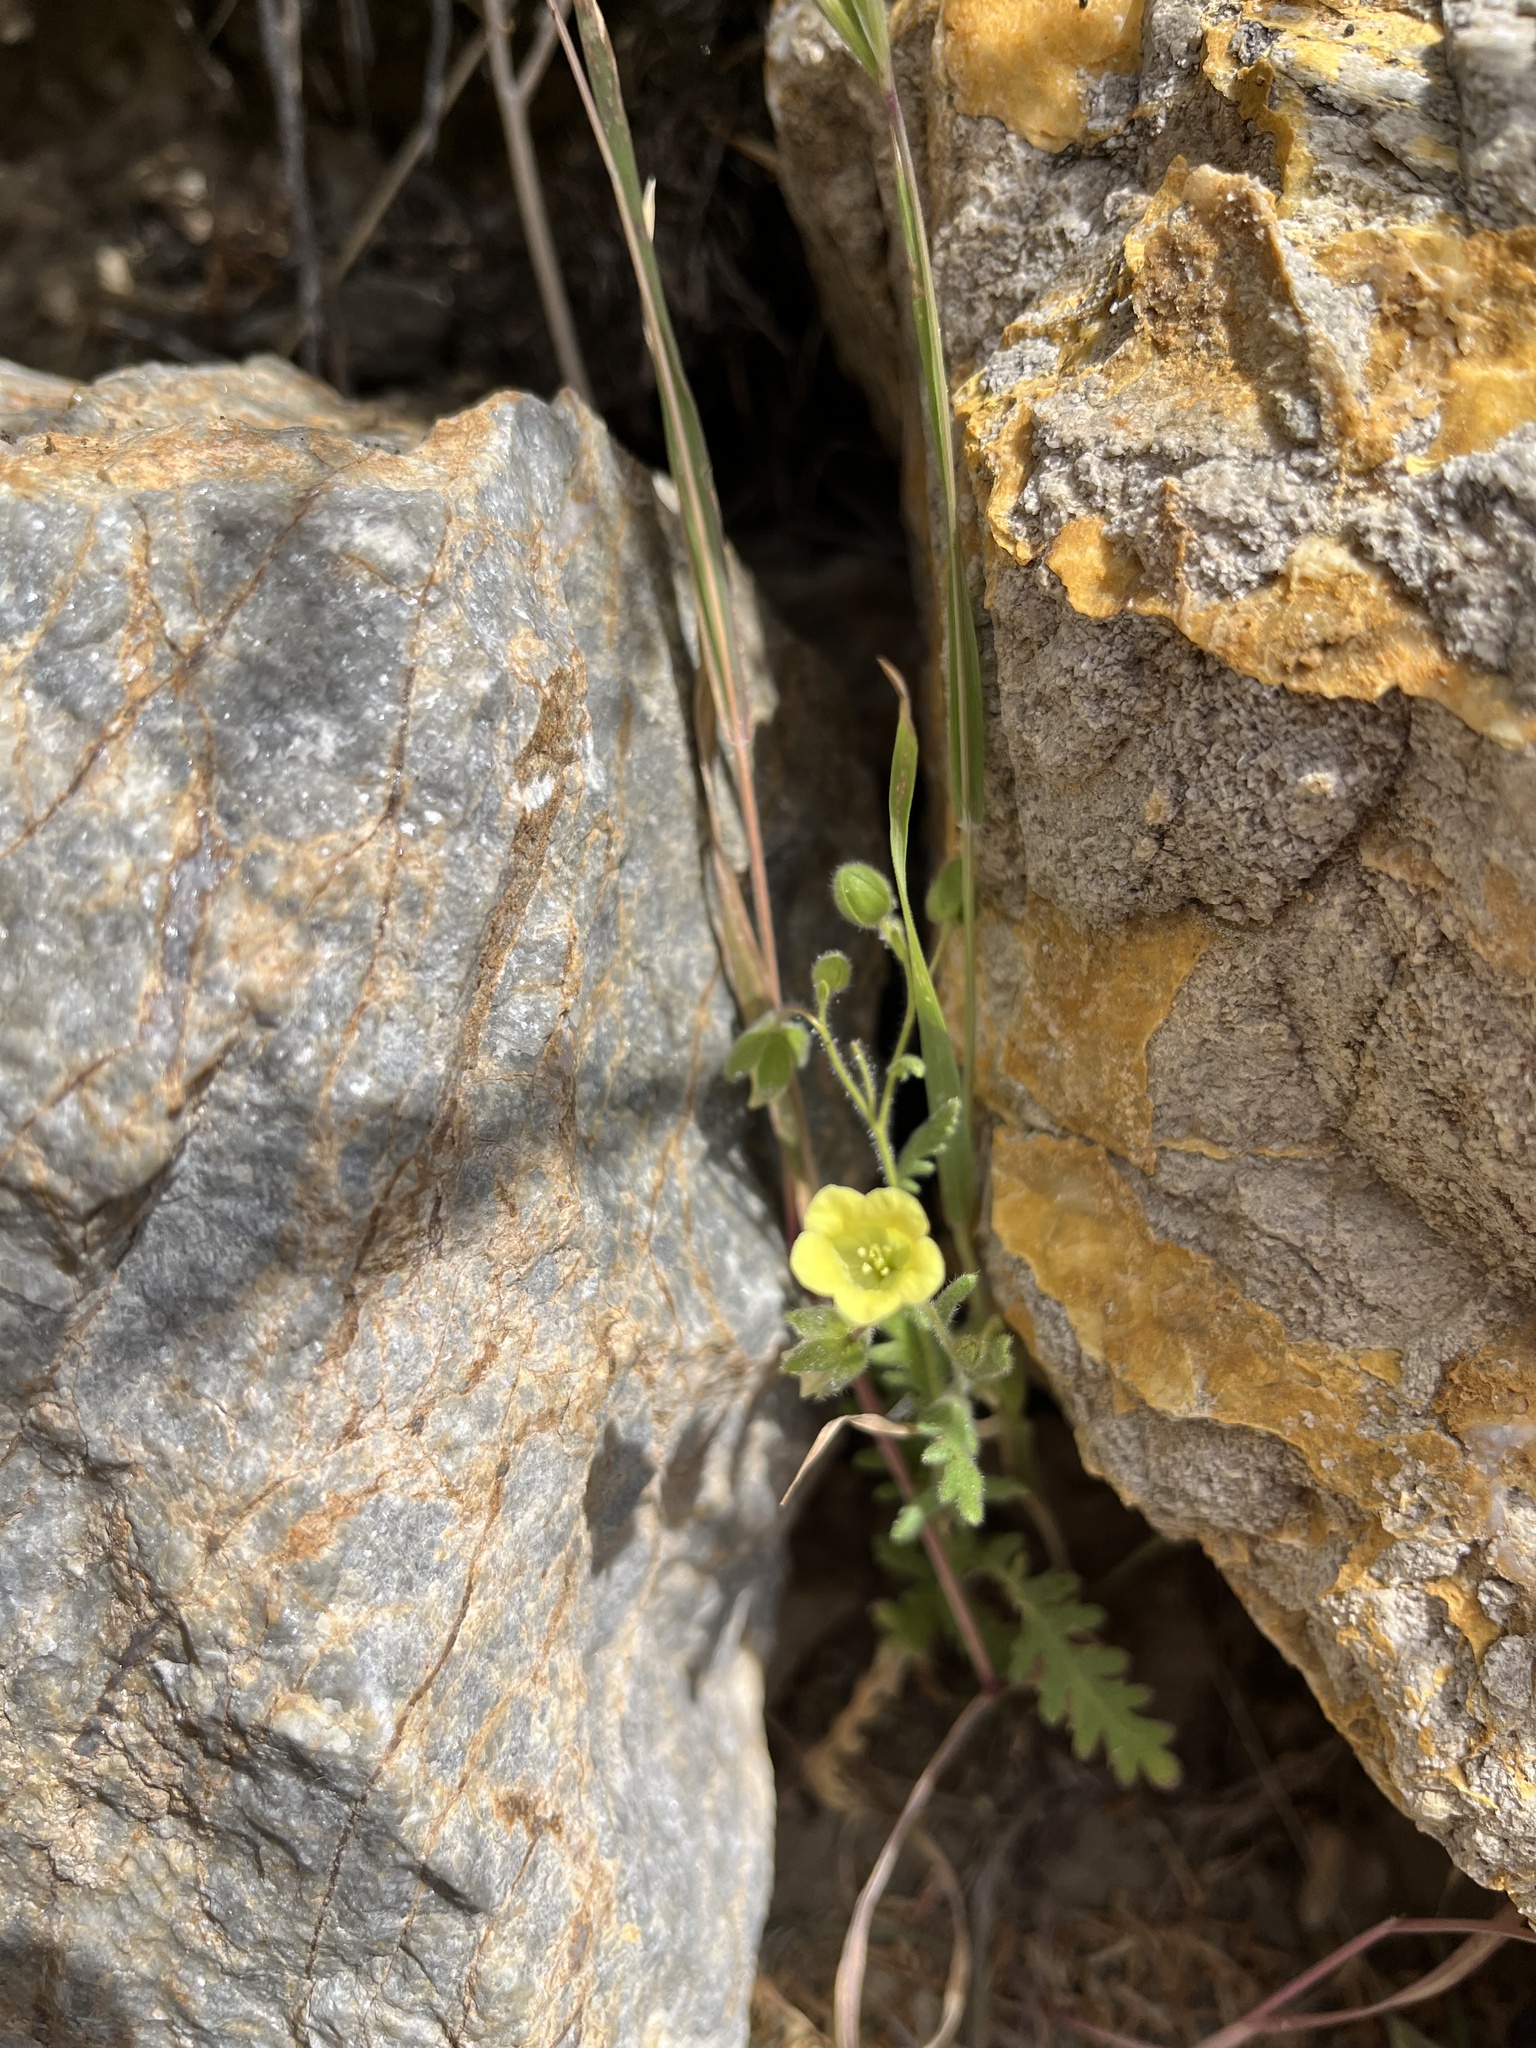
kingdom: Plantae
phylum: Tracheophyta
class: Magnoliopsida
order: Boraginales
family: Hydrophyllaceae
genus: Emmenanthe
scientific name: Emmenanthe penduliflora
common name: Whispering-bells
